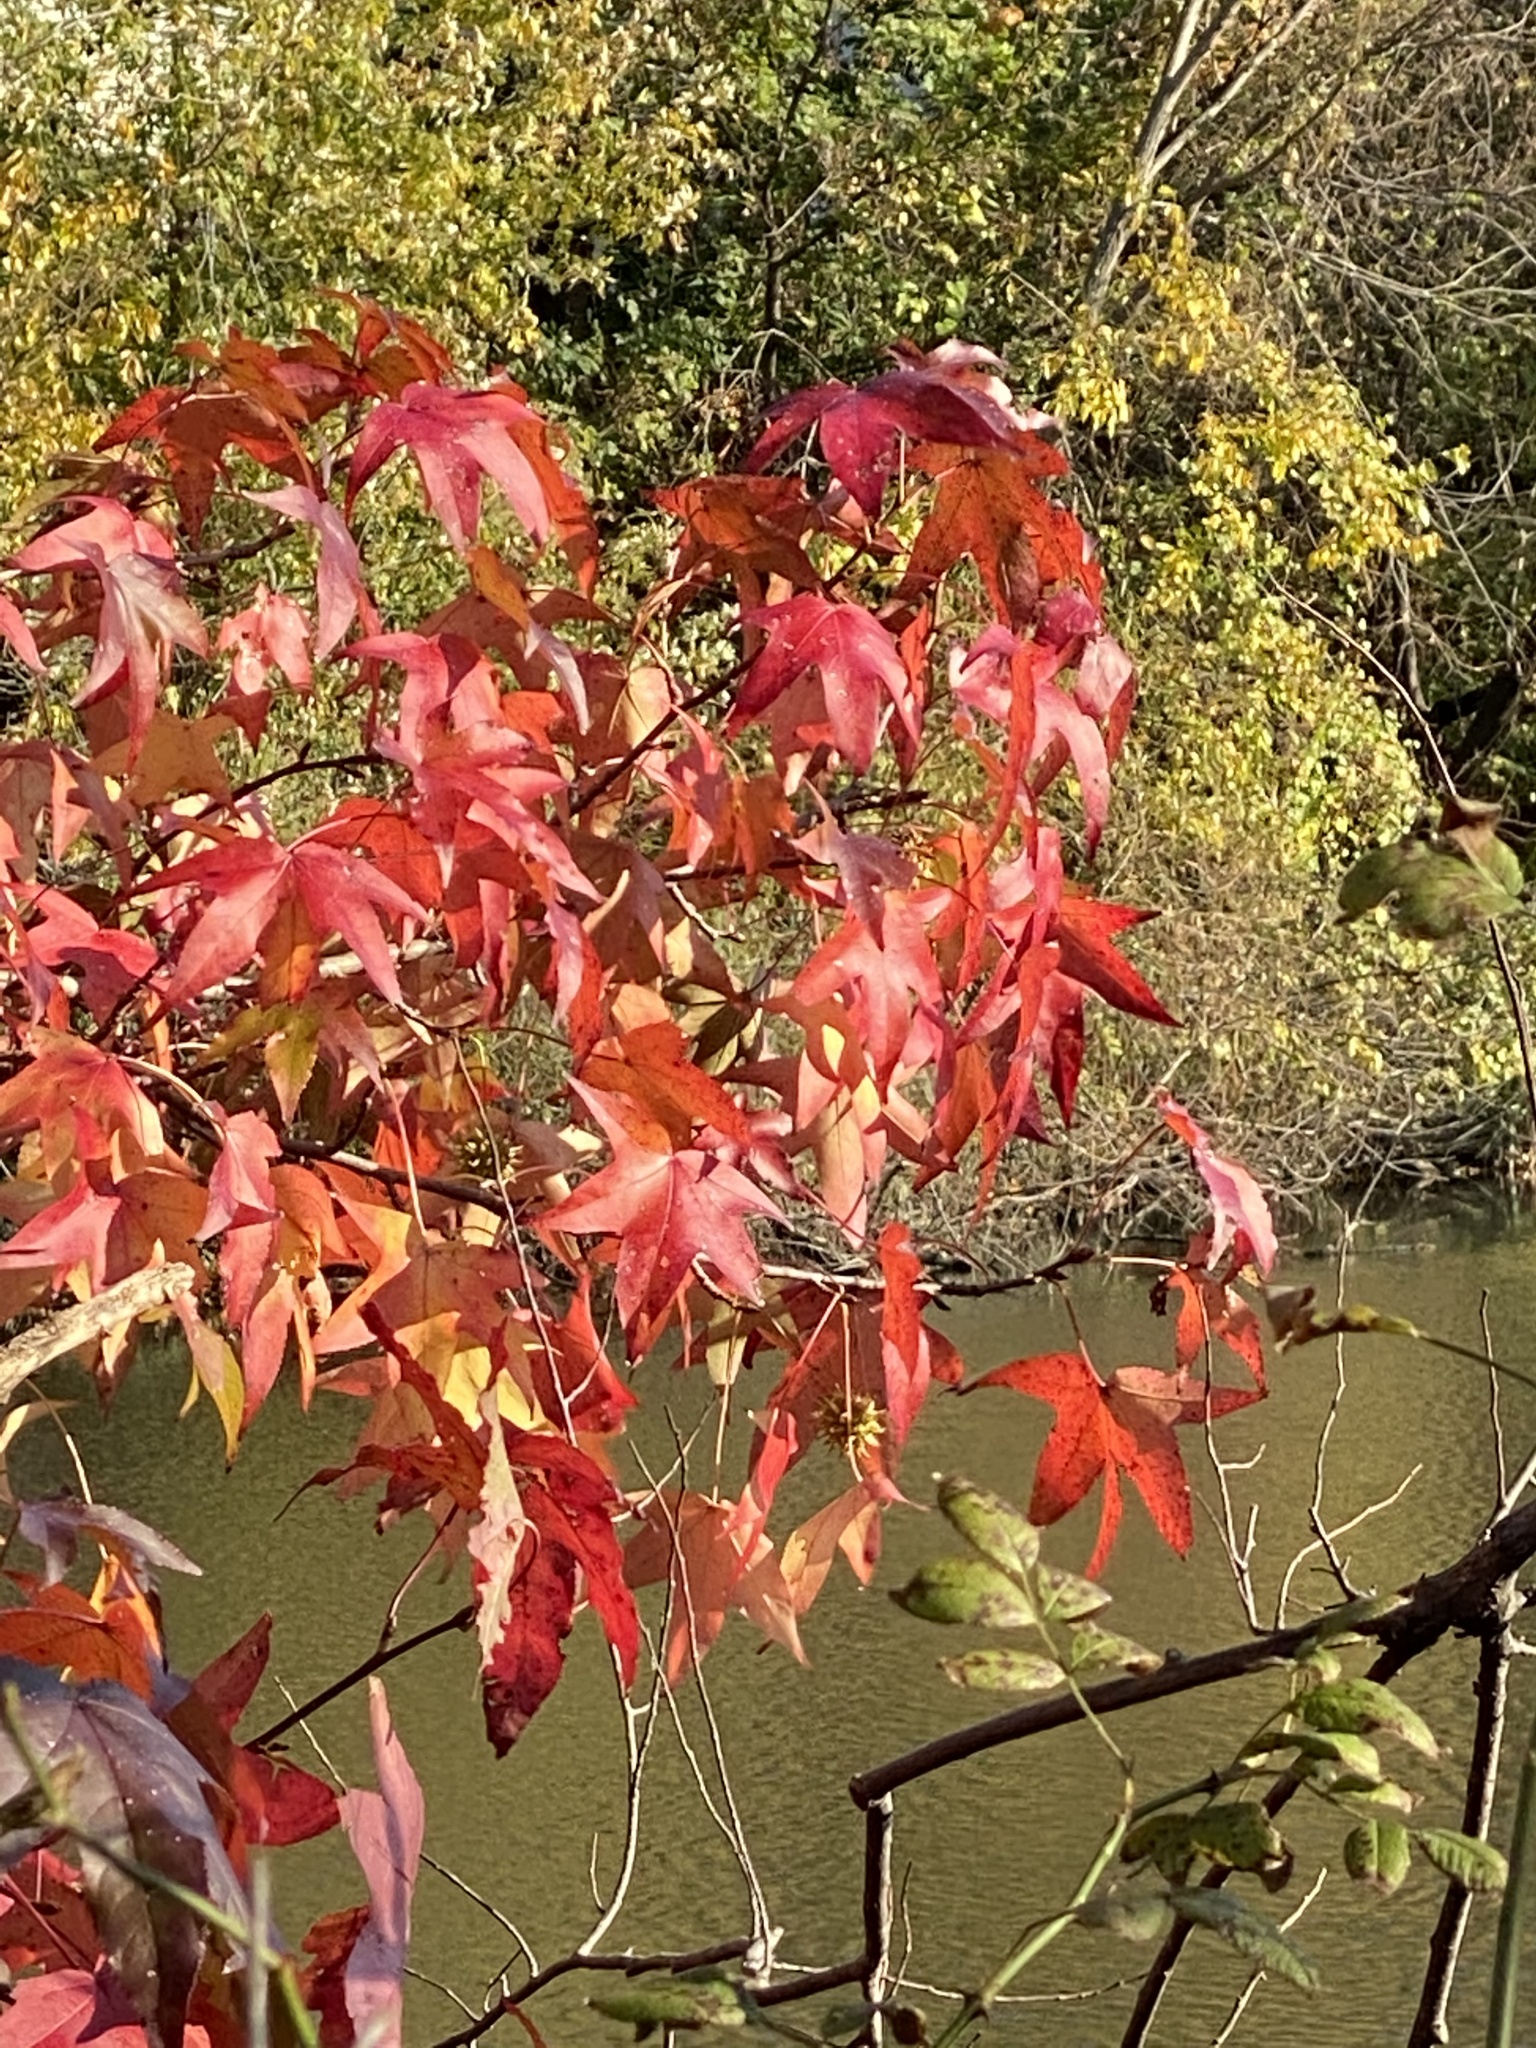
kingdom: Plantae
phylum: Tracheophyta
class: Magnoliopsida
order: Saxifragales
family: Altingiaceae
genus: Liquidambar
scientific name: Liquidambar styraciflua
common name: Sweet gum
